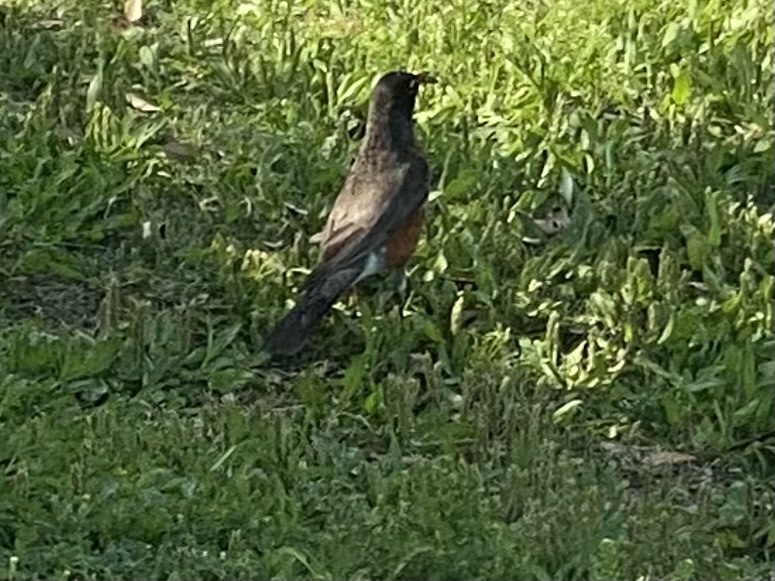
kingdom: Animalia
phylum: Chordata
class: Aves
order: Passeriformes
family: Turdidae
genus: Turdus
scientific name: Turdus migratorius
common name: American robin
